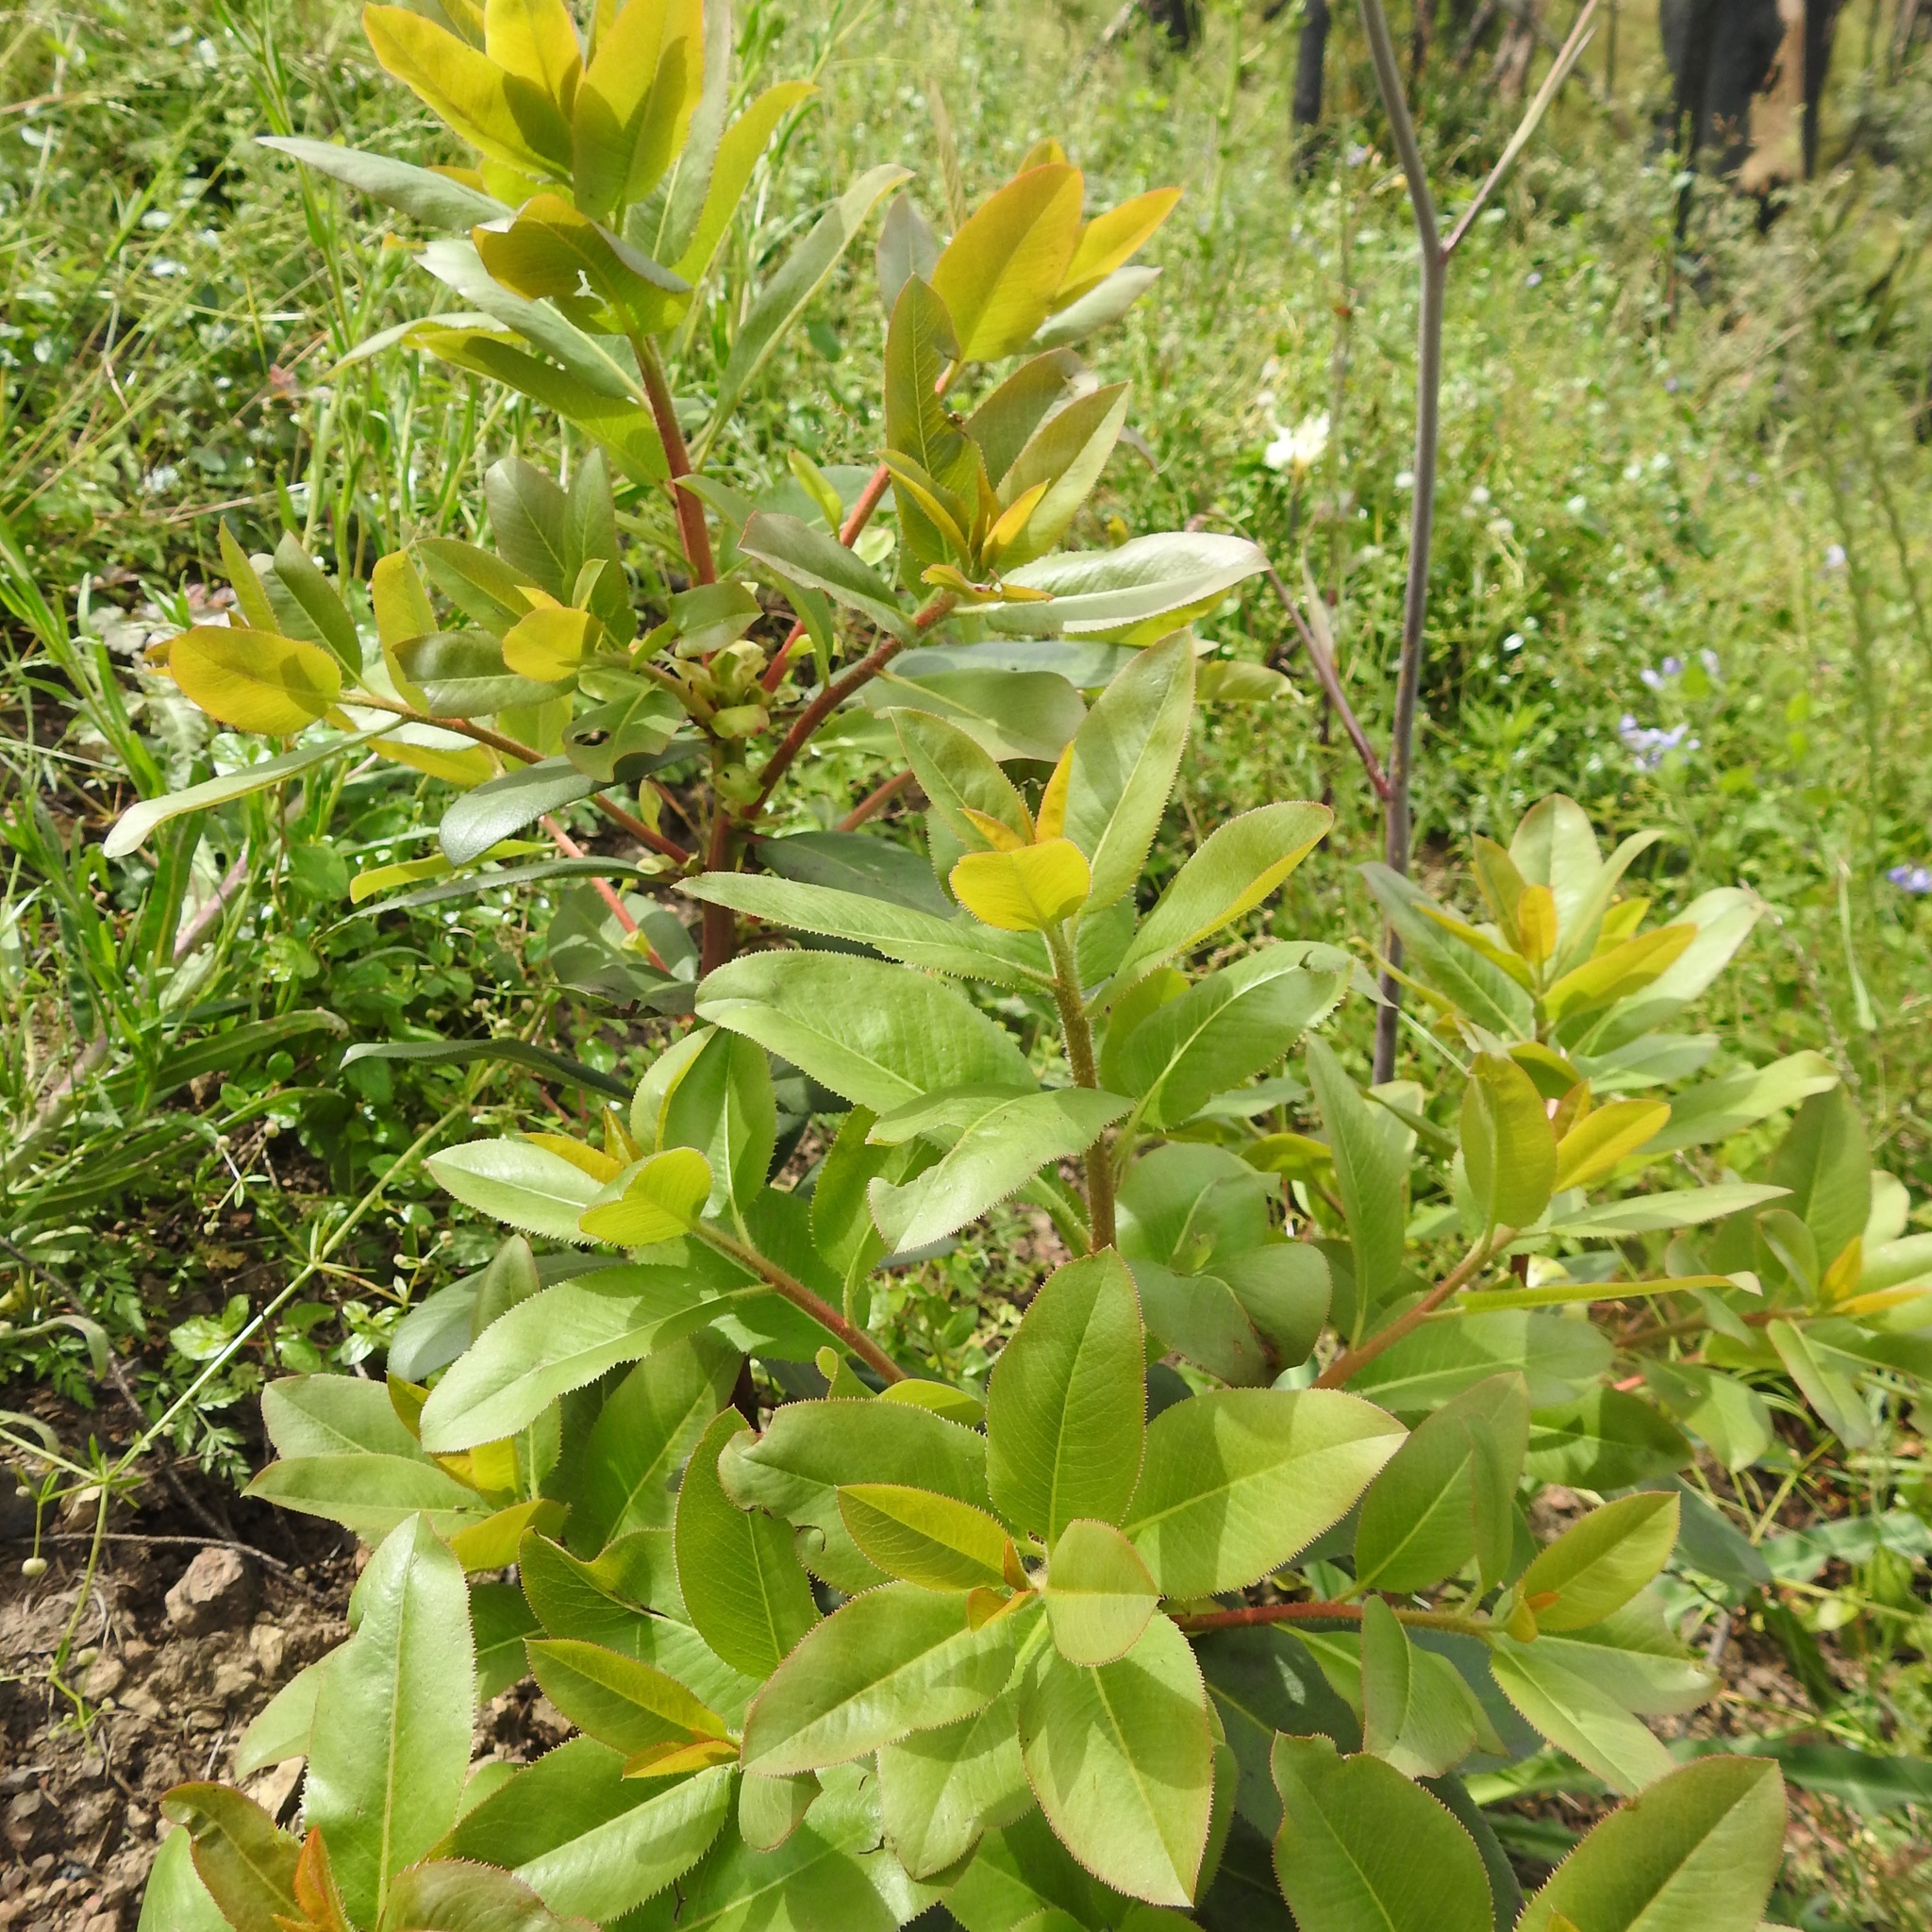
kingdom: Plantae
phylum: Tracheophyta
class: Magnoliopsida
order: Ericales
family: Ericaceae
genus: Arbutus
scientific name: Arbutus menziesii
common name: Pacific madrone
